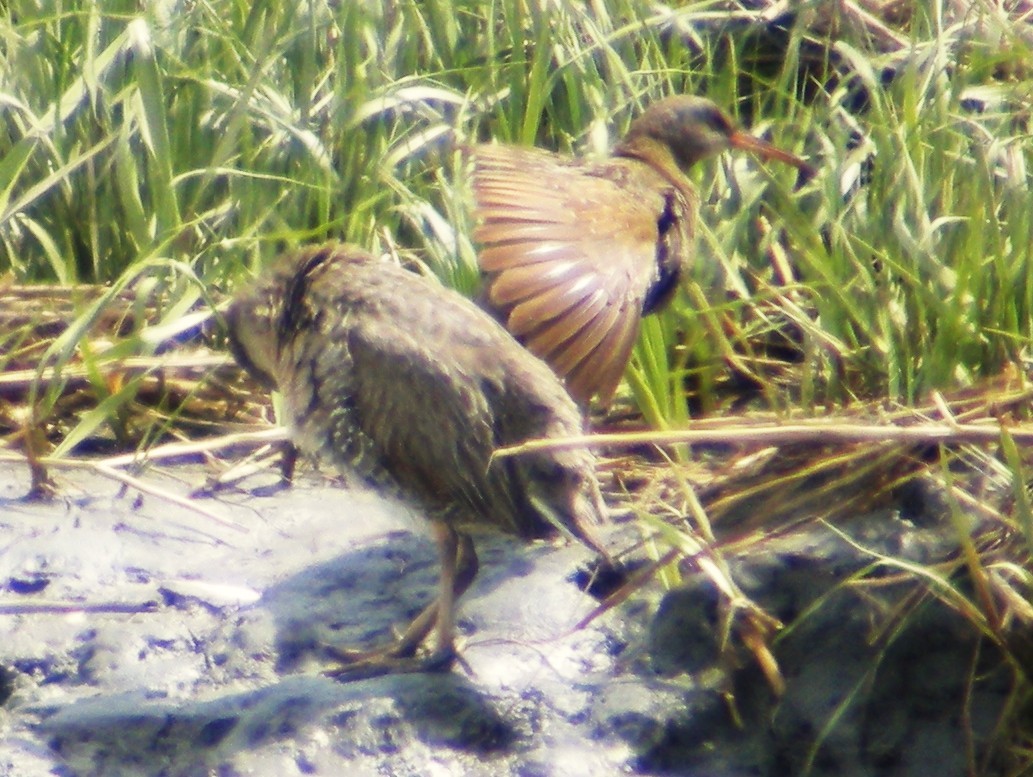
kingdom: Animalia
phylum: Chordata
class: Aves
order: Gruiformes
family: Rallidae
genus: Rallus
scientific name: Rallus crepitans
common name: Clapper rail
